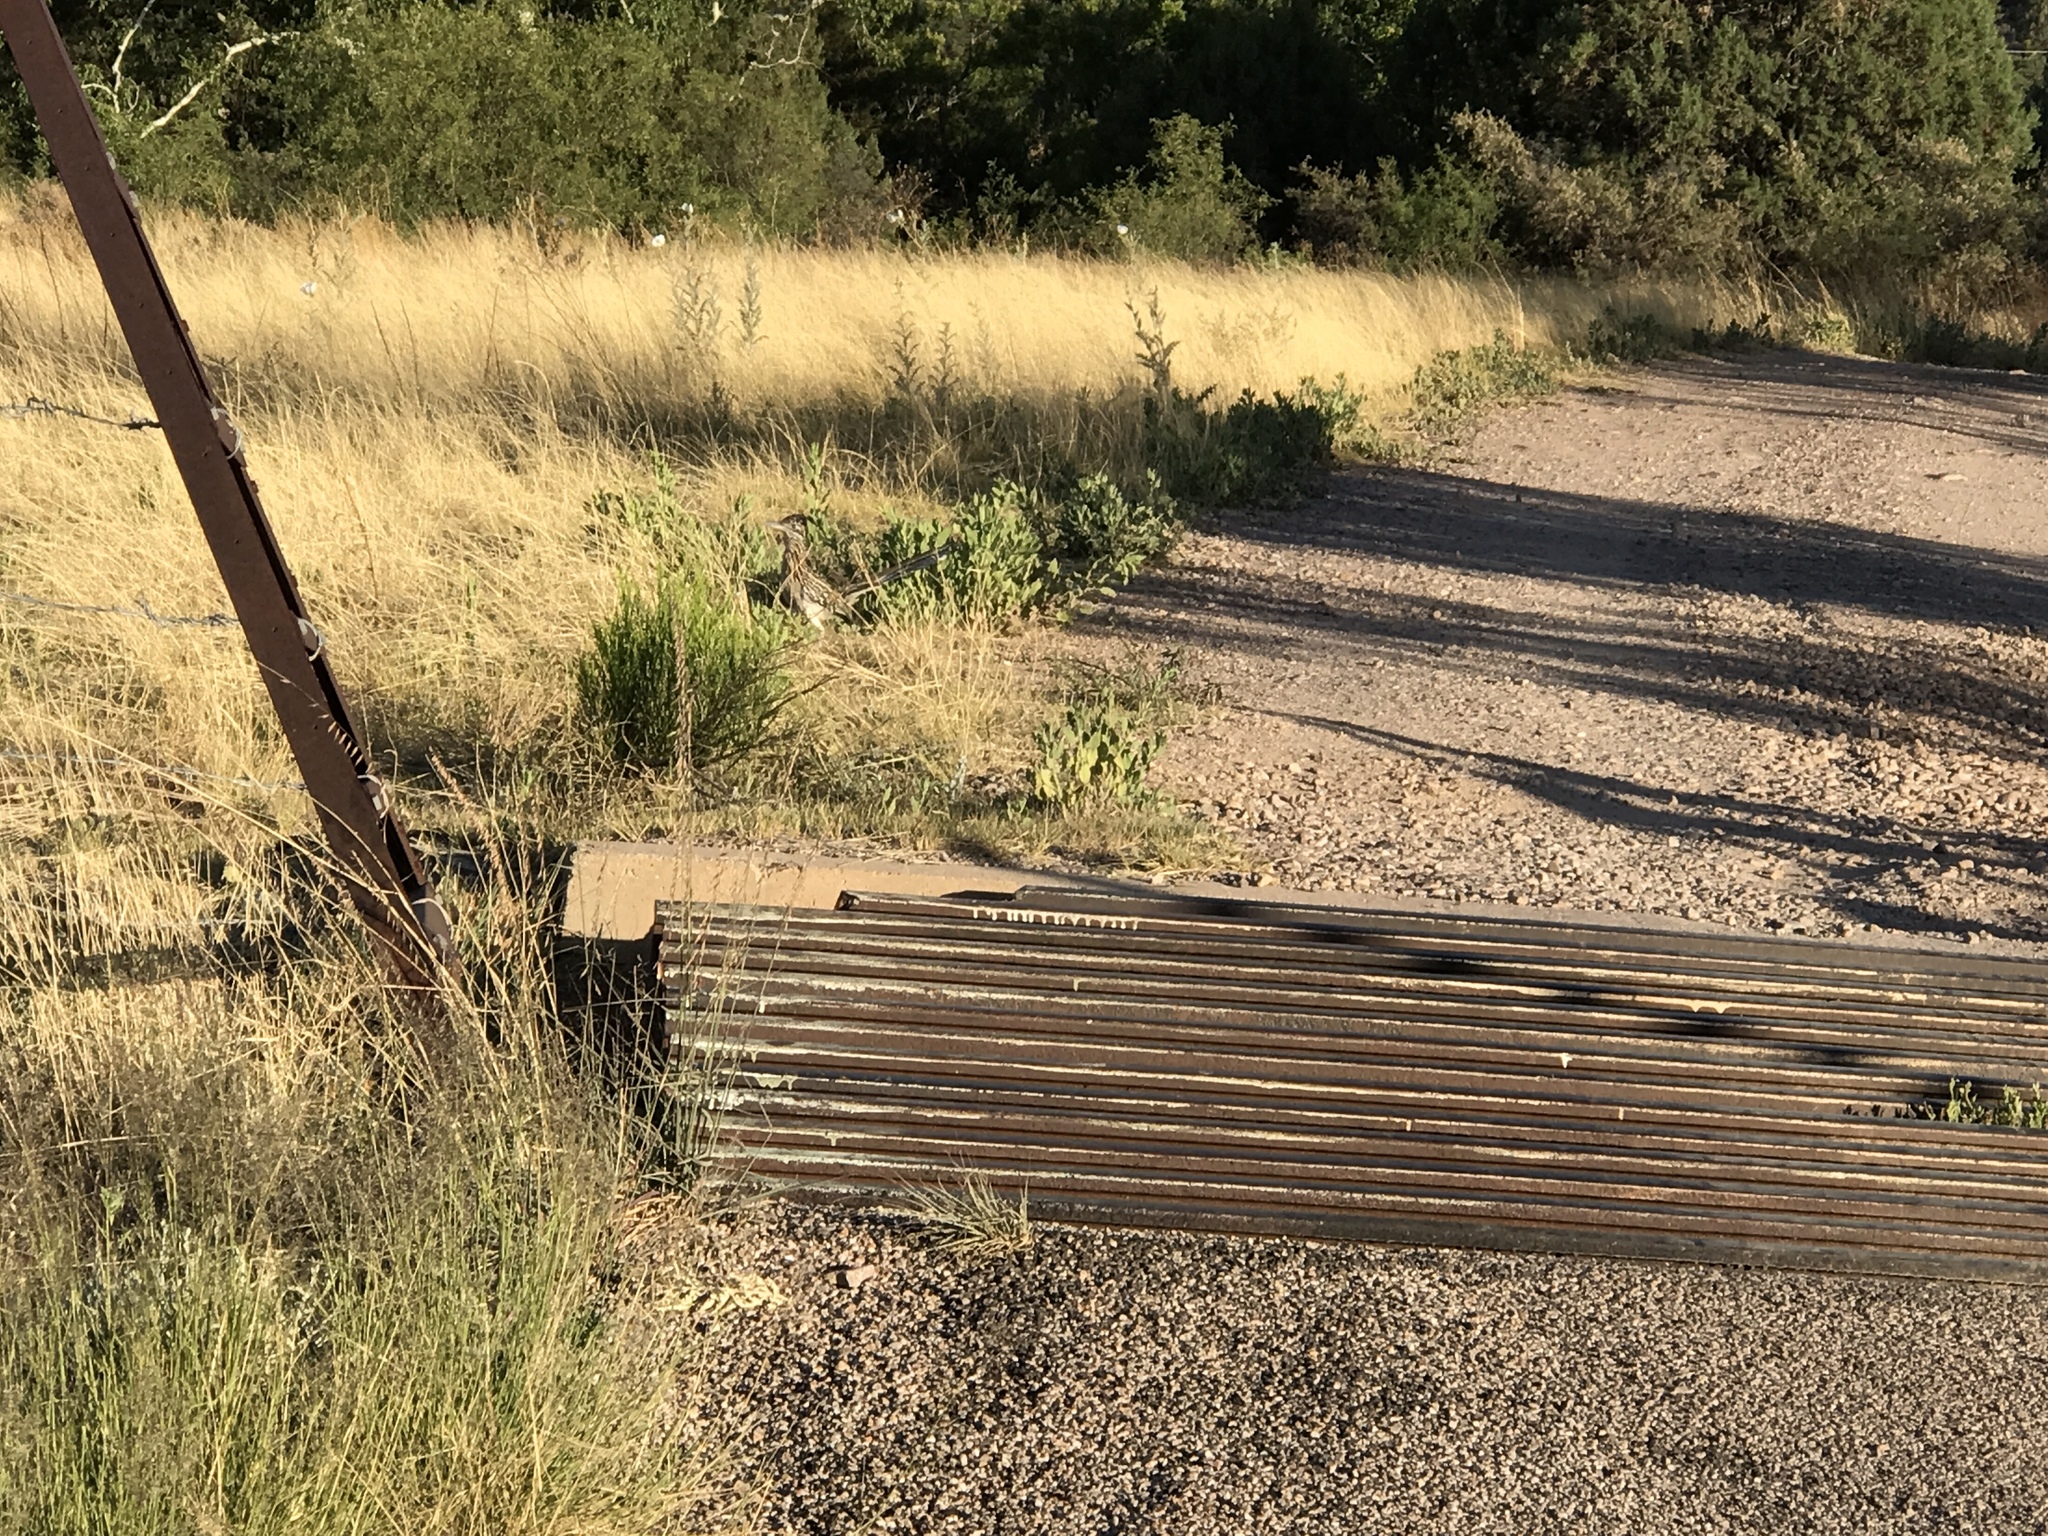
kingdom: Animalia
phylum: Chordata
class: Aves
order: Cuculiformes
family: Cuculidae
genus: Geococcyx
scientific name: Geococcyx californianus
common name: Greater roadrunner
